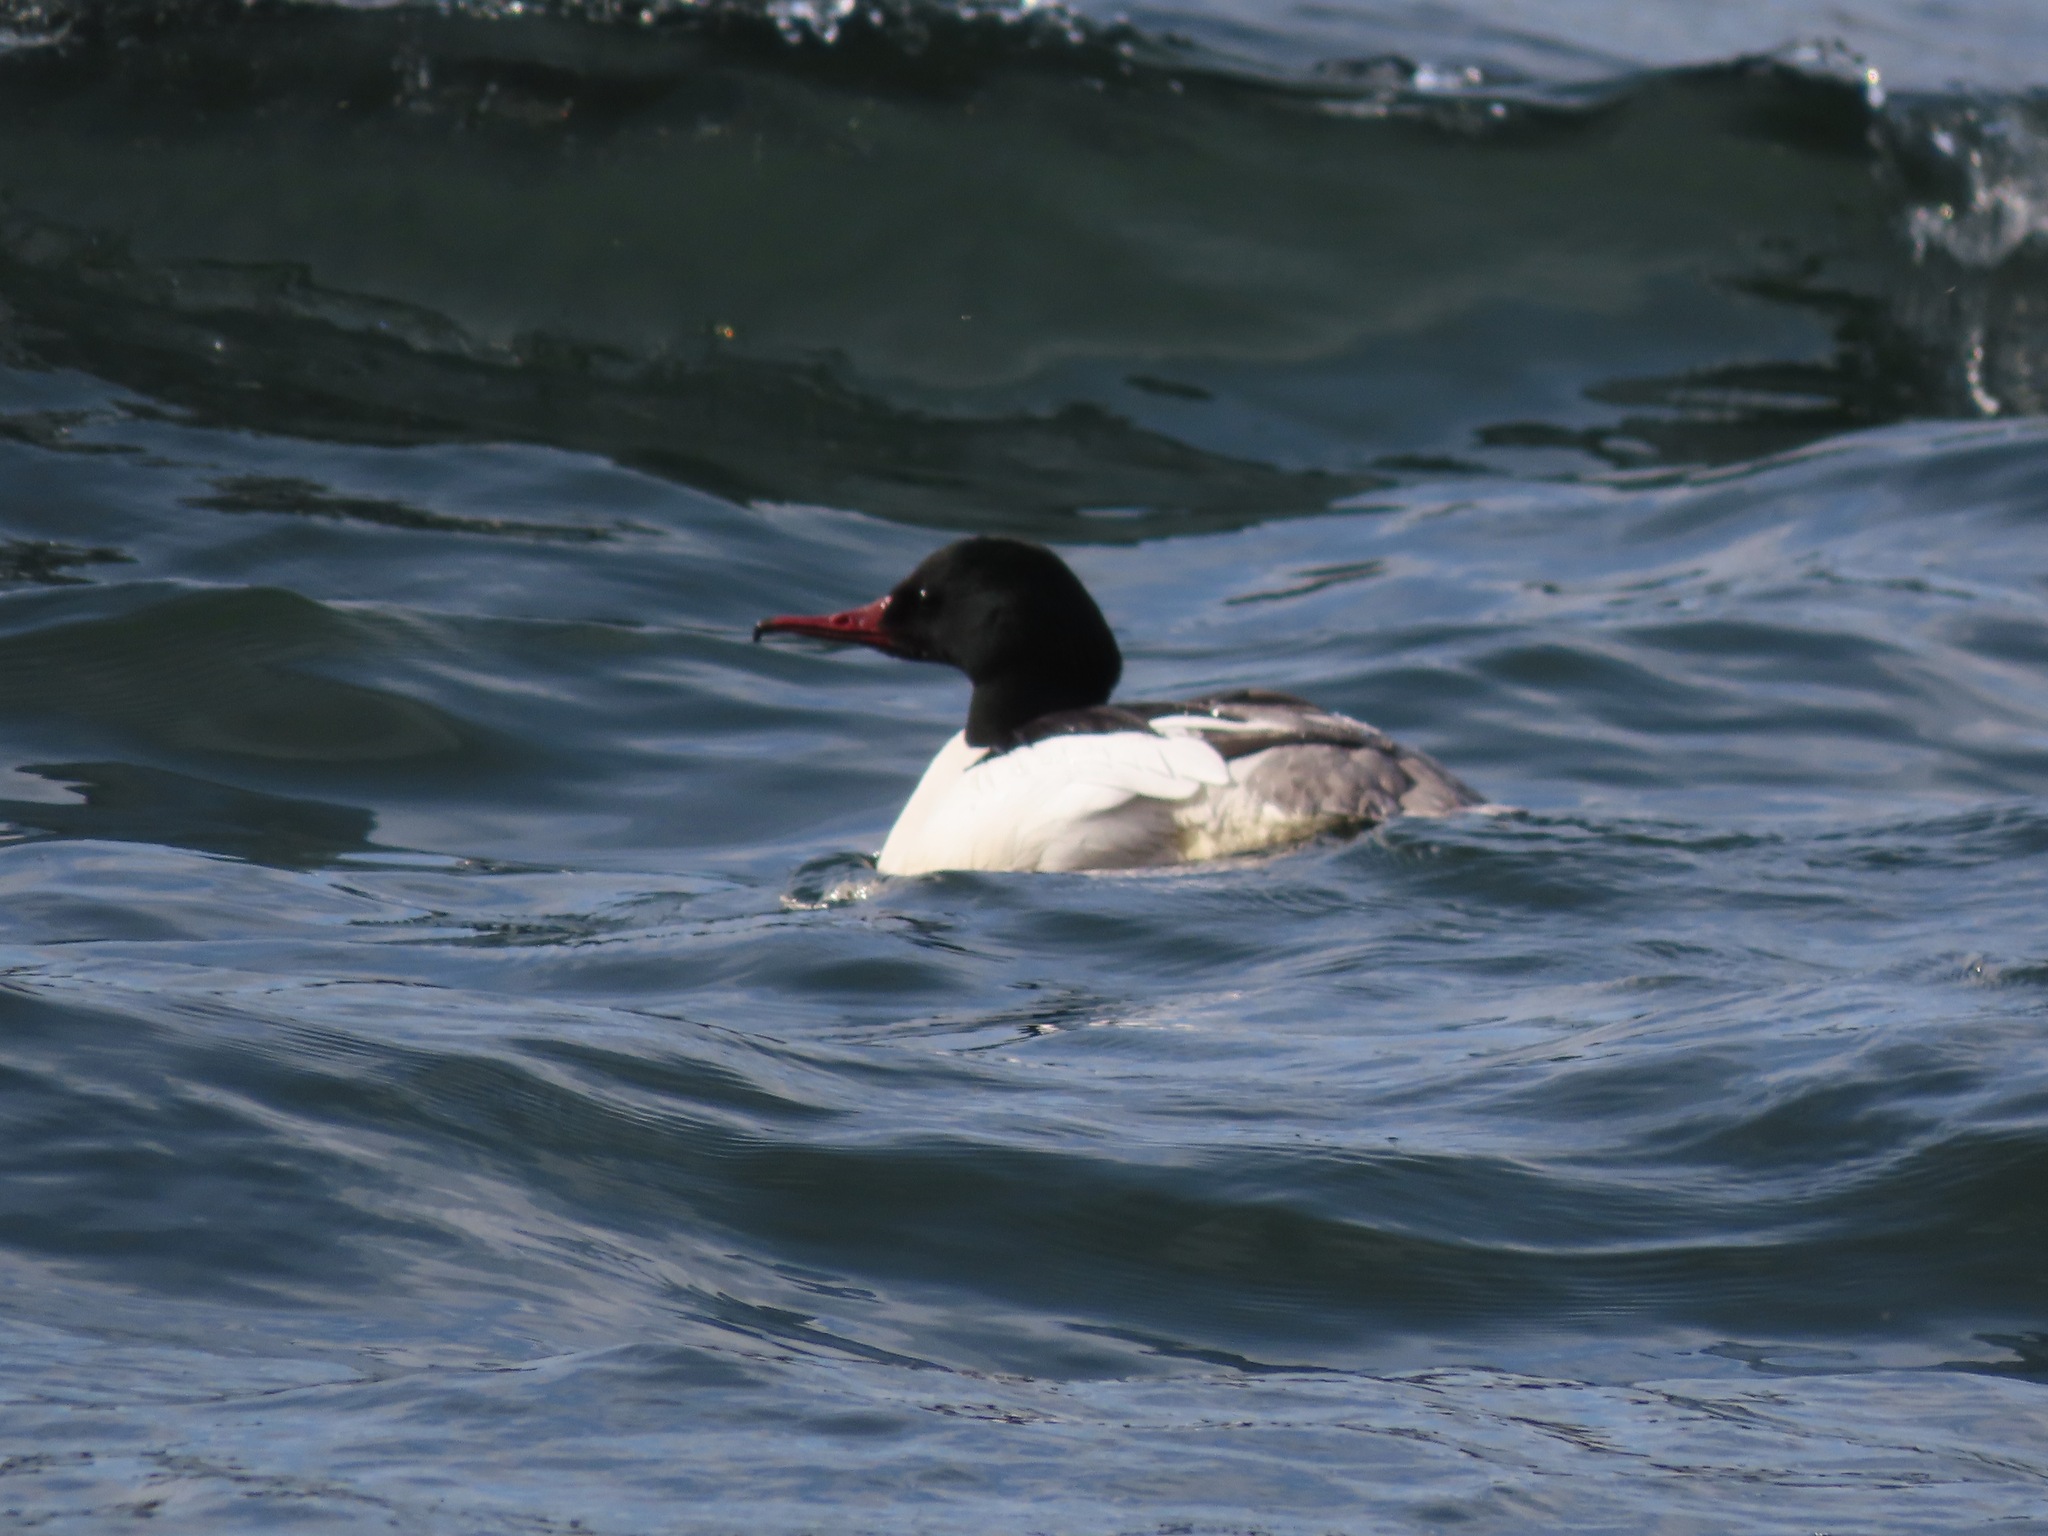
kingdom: Animalia
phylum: Chordata
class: Aves
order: Anseriformes
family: Anatidae
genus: Mergus
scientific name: Mergus merganser
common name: Common merganser
